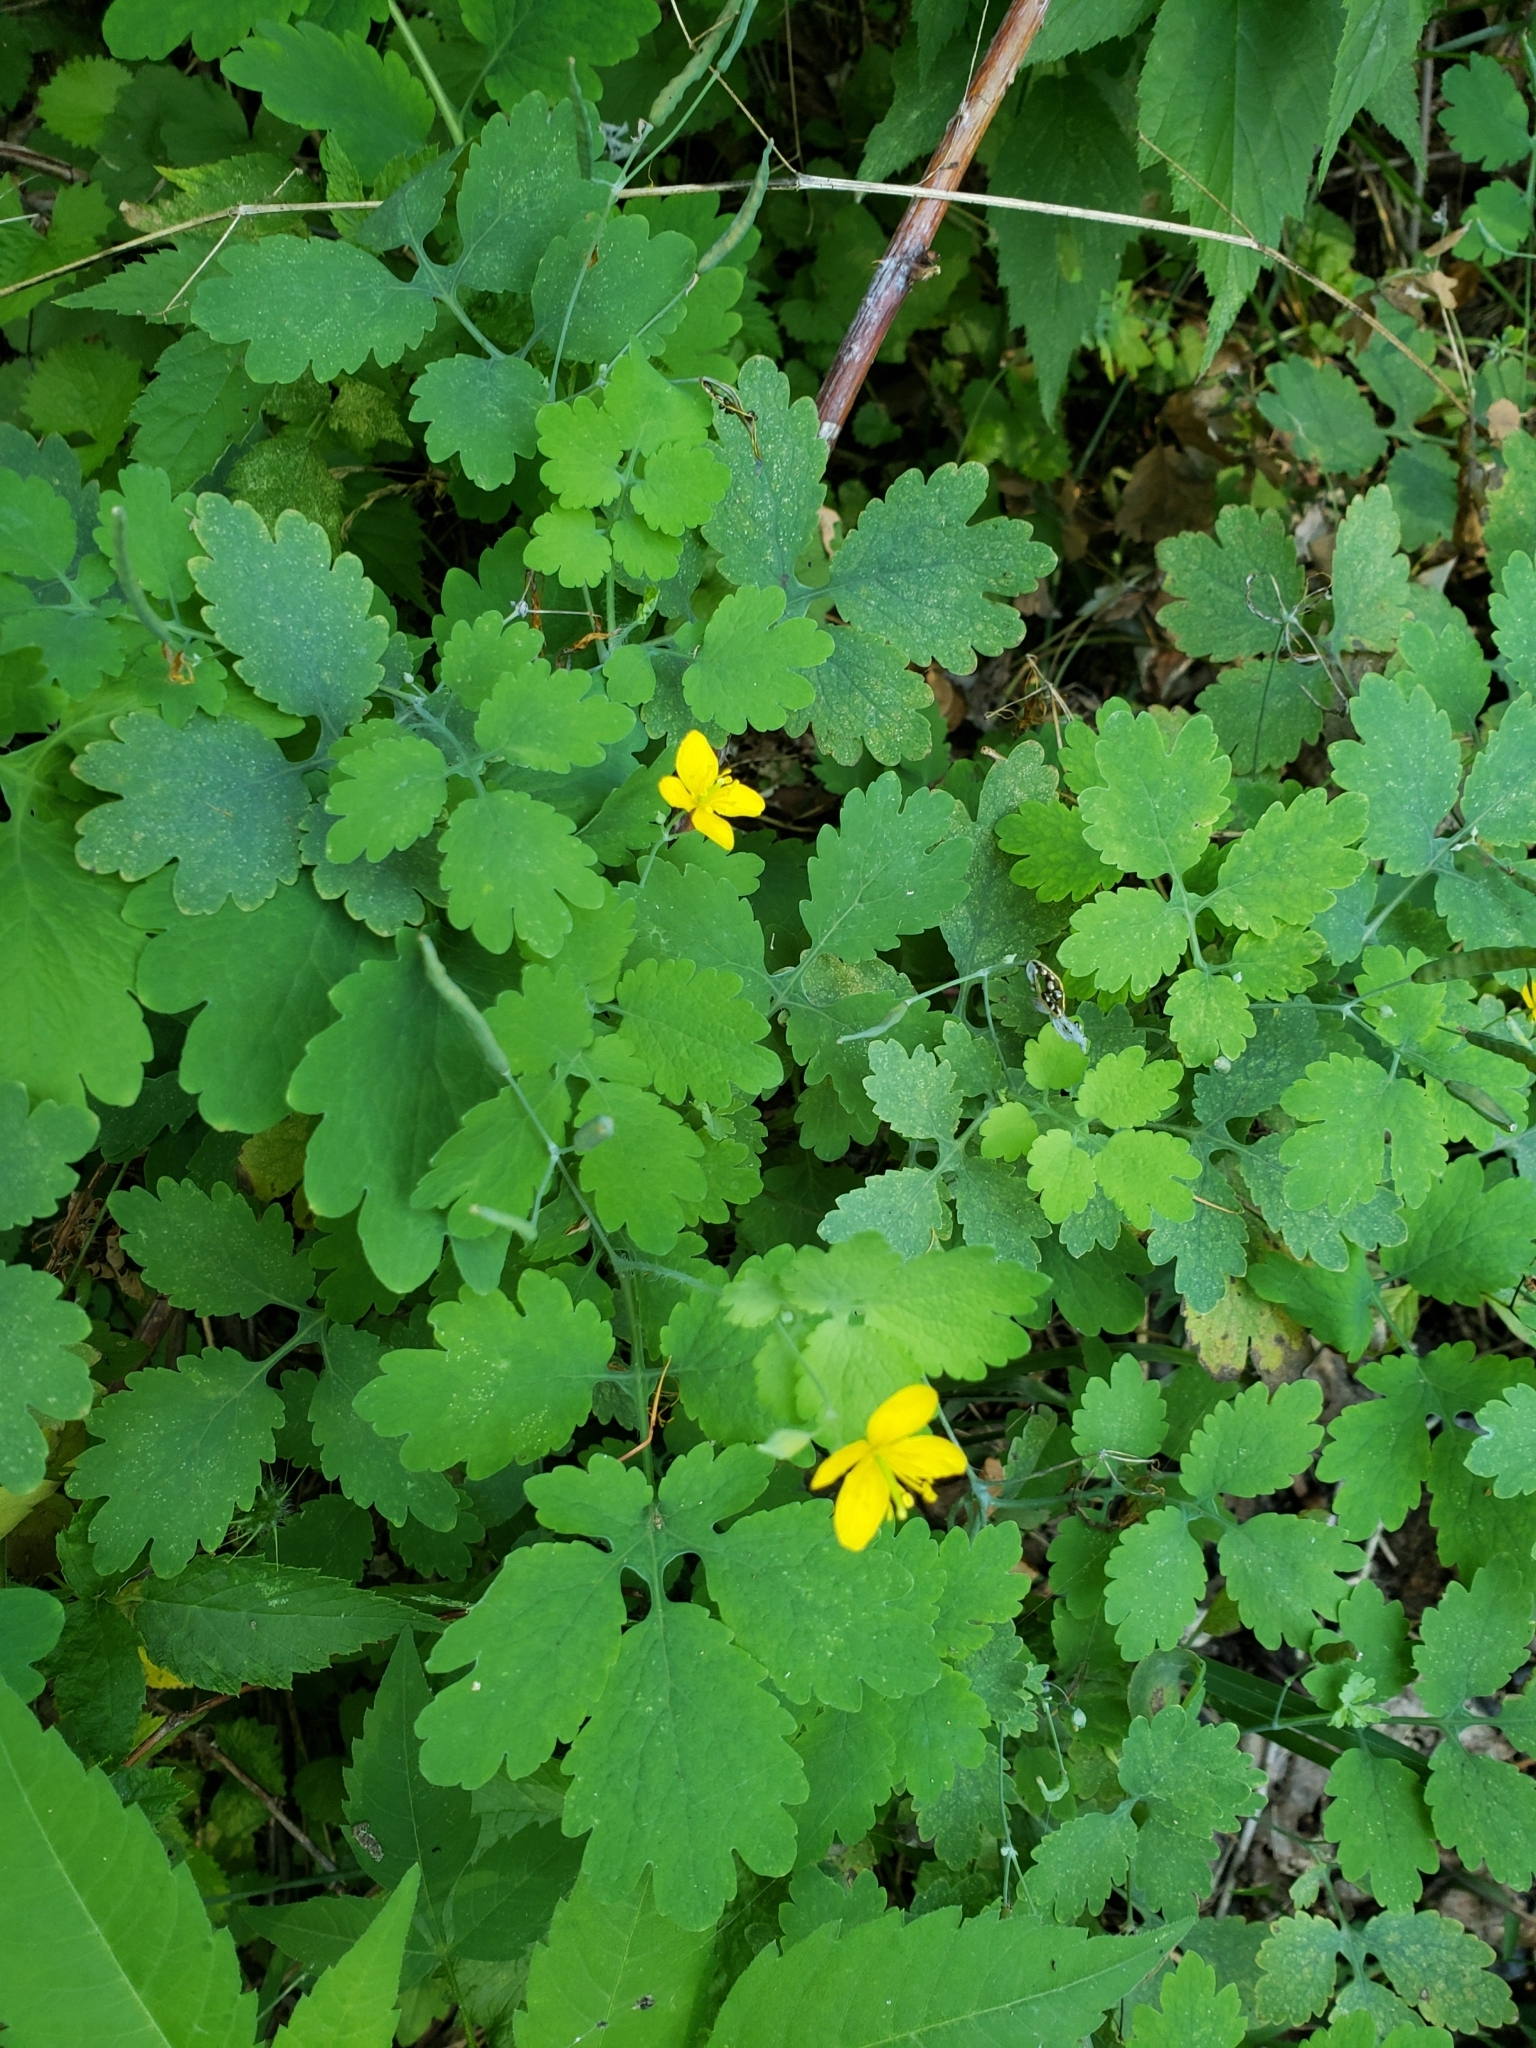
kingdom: Plantae
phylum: Tracheophyta
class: Magnoliopsida
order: Ranunculales
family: Papaveraceae
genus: Chelidonium
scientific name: Chelidonium majus
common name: Greater celandine
